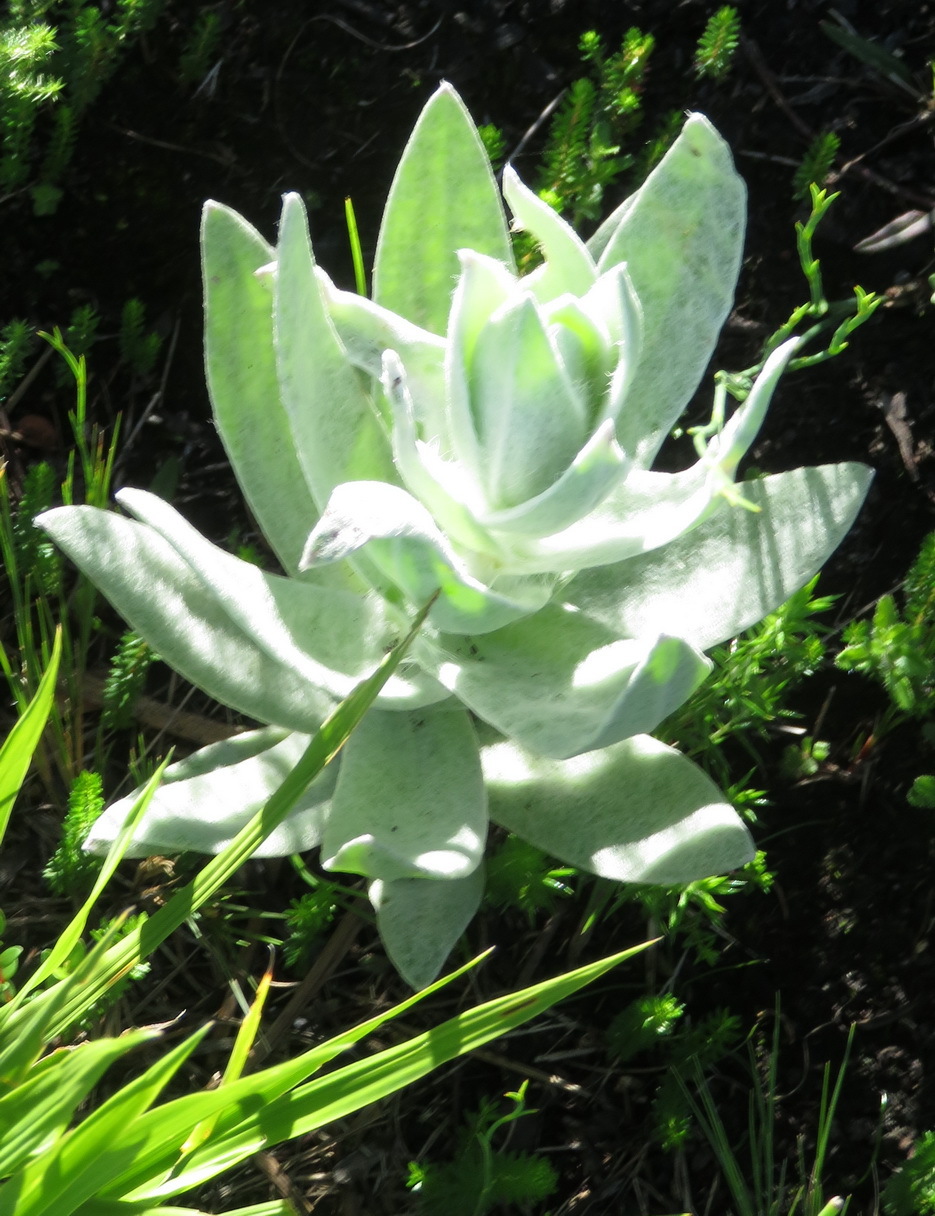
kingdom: Plantae
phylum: Tracheophyta
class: Magnoliopsida
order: Asterales
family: Asteraceae
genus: Syncarpha
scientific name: Syncarpha eximia
